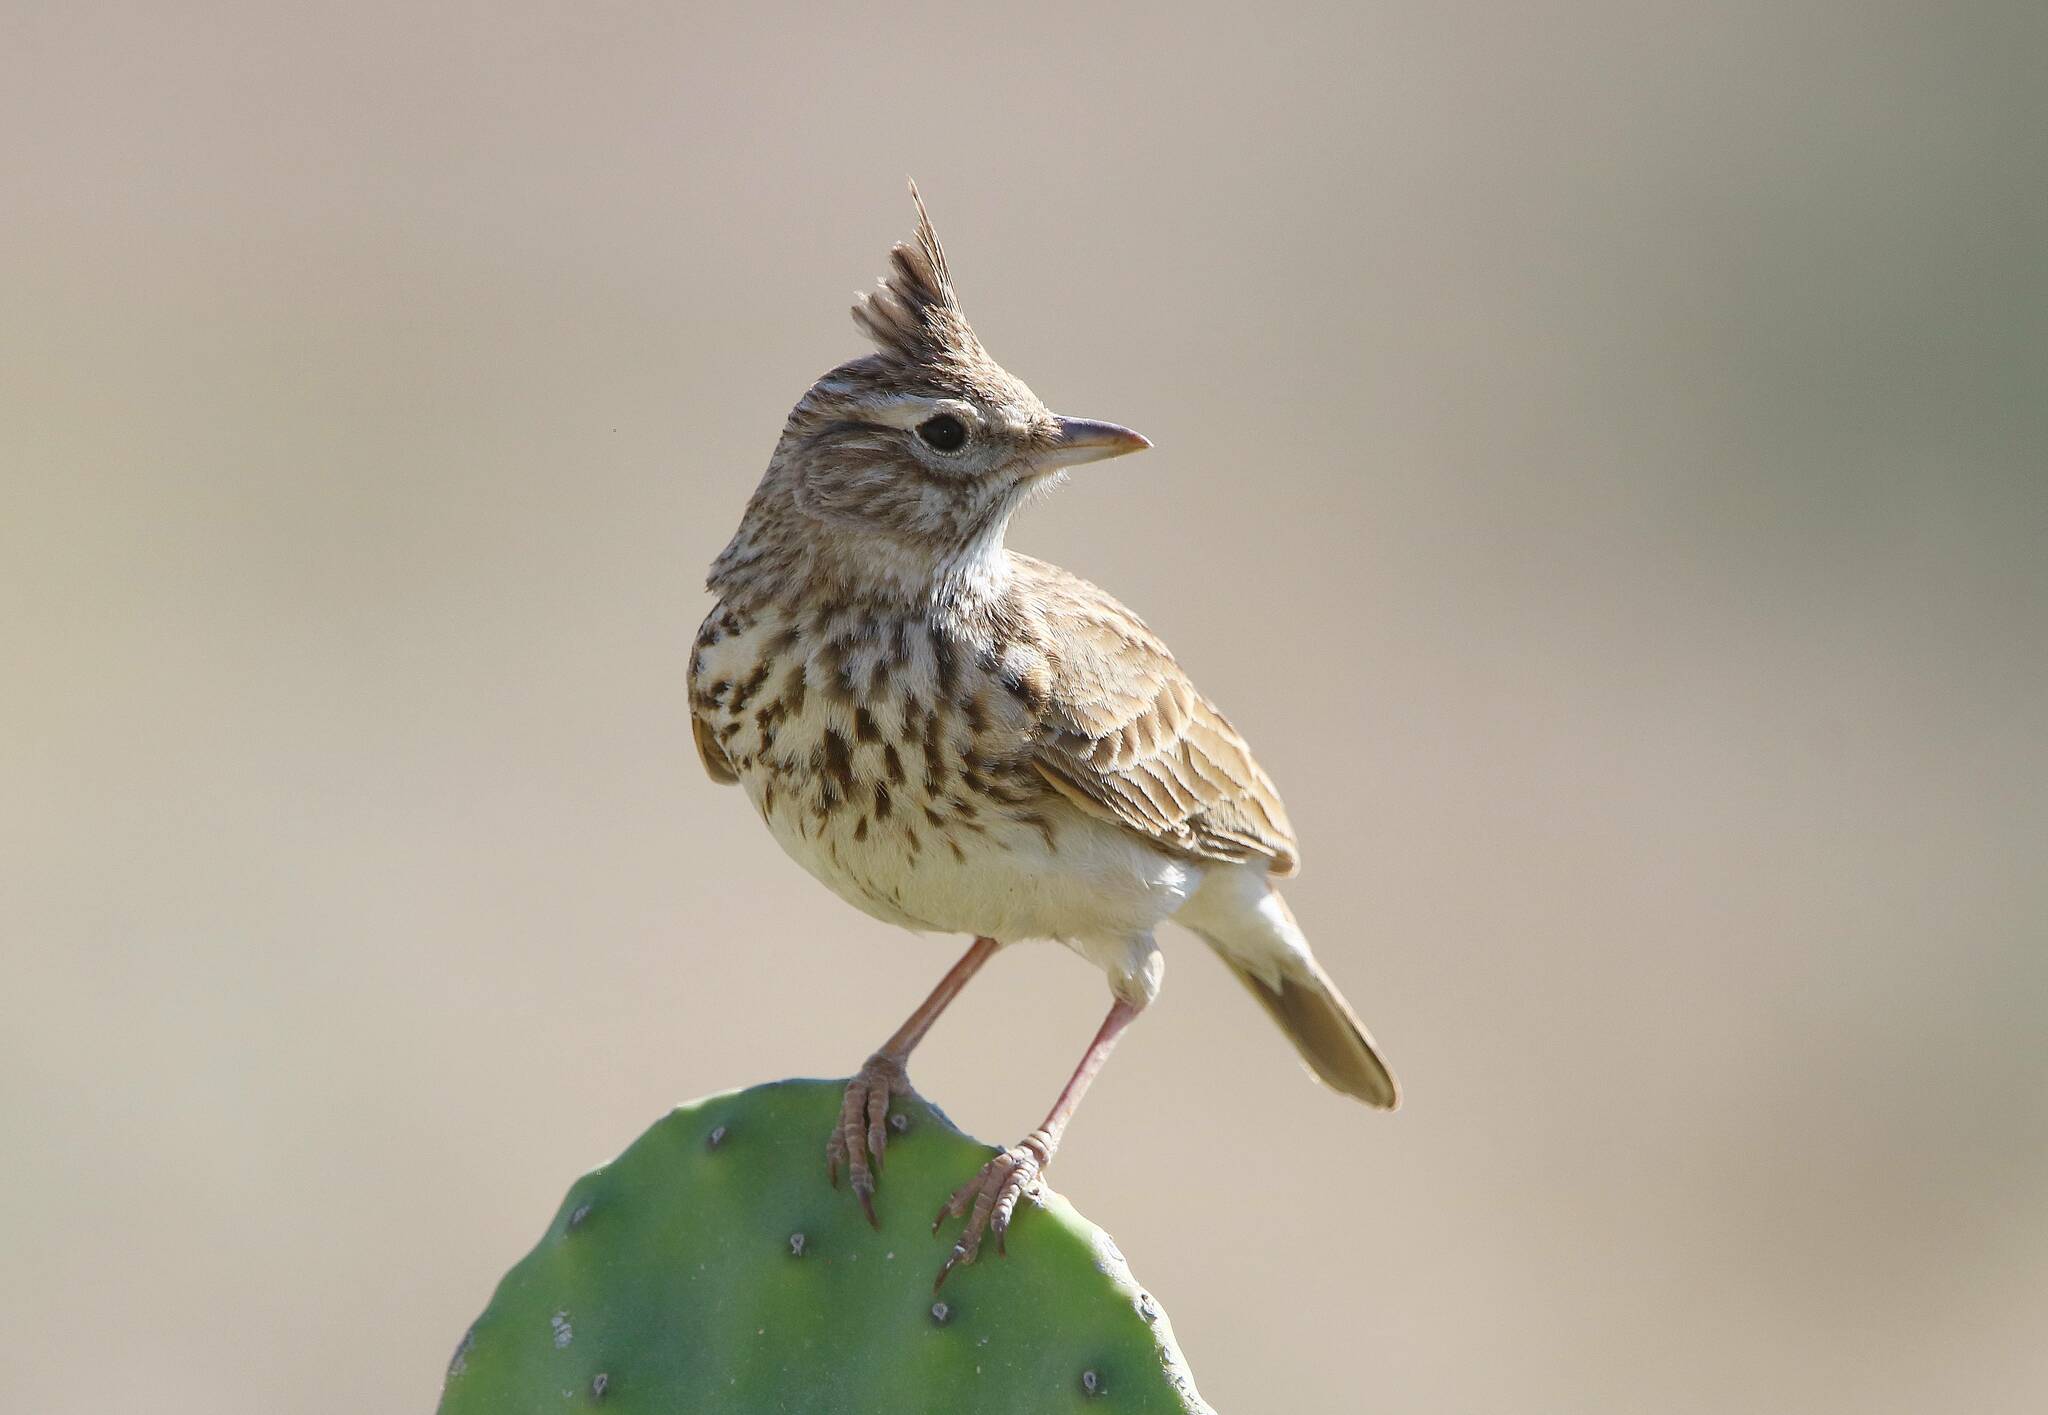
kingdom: Animalia
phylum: Chordata
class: Aves
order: Passeriformes
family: Alaudidae
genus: Galerida
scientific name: Galerida theklae
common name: Thekla lark
